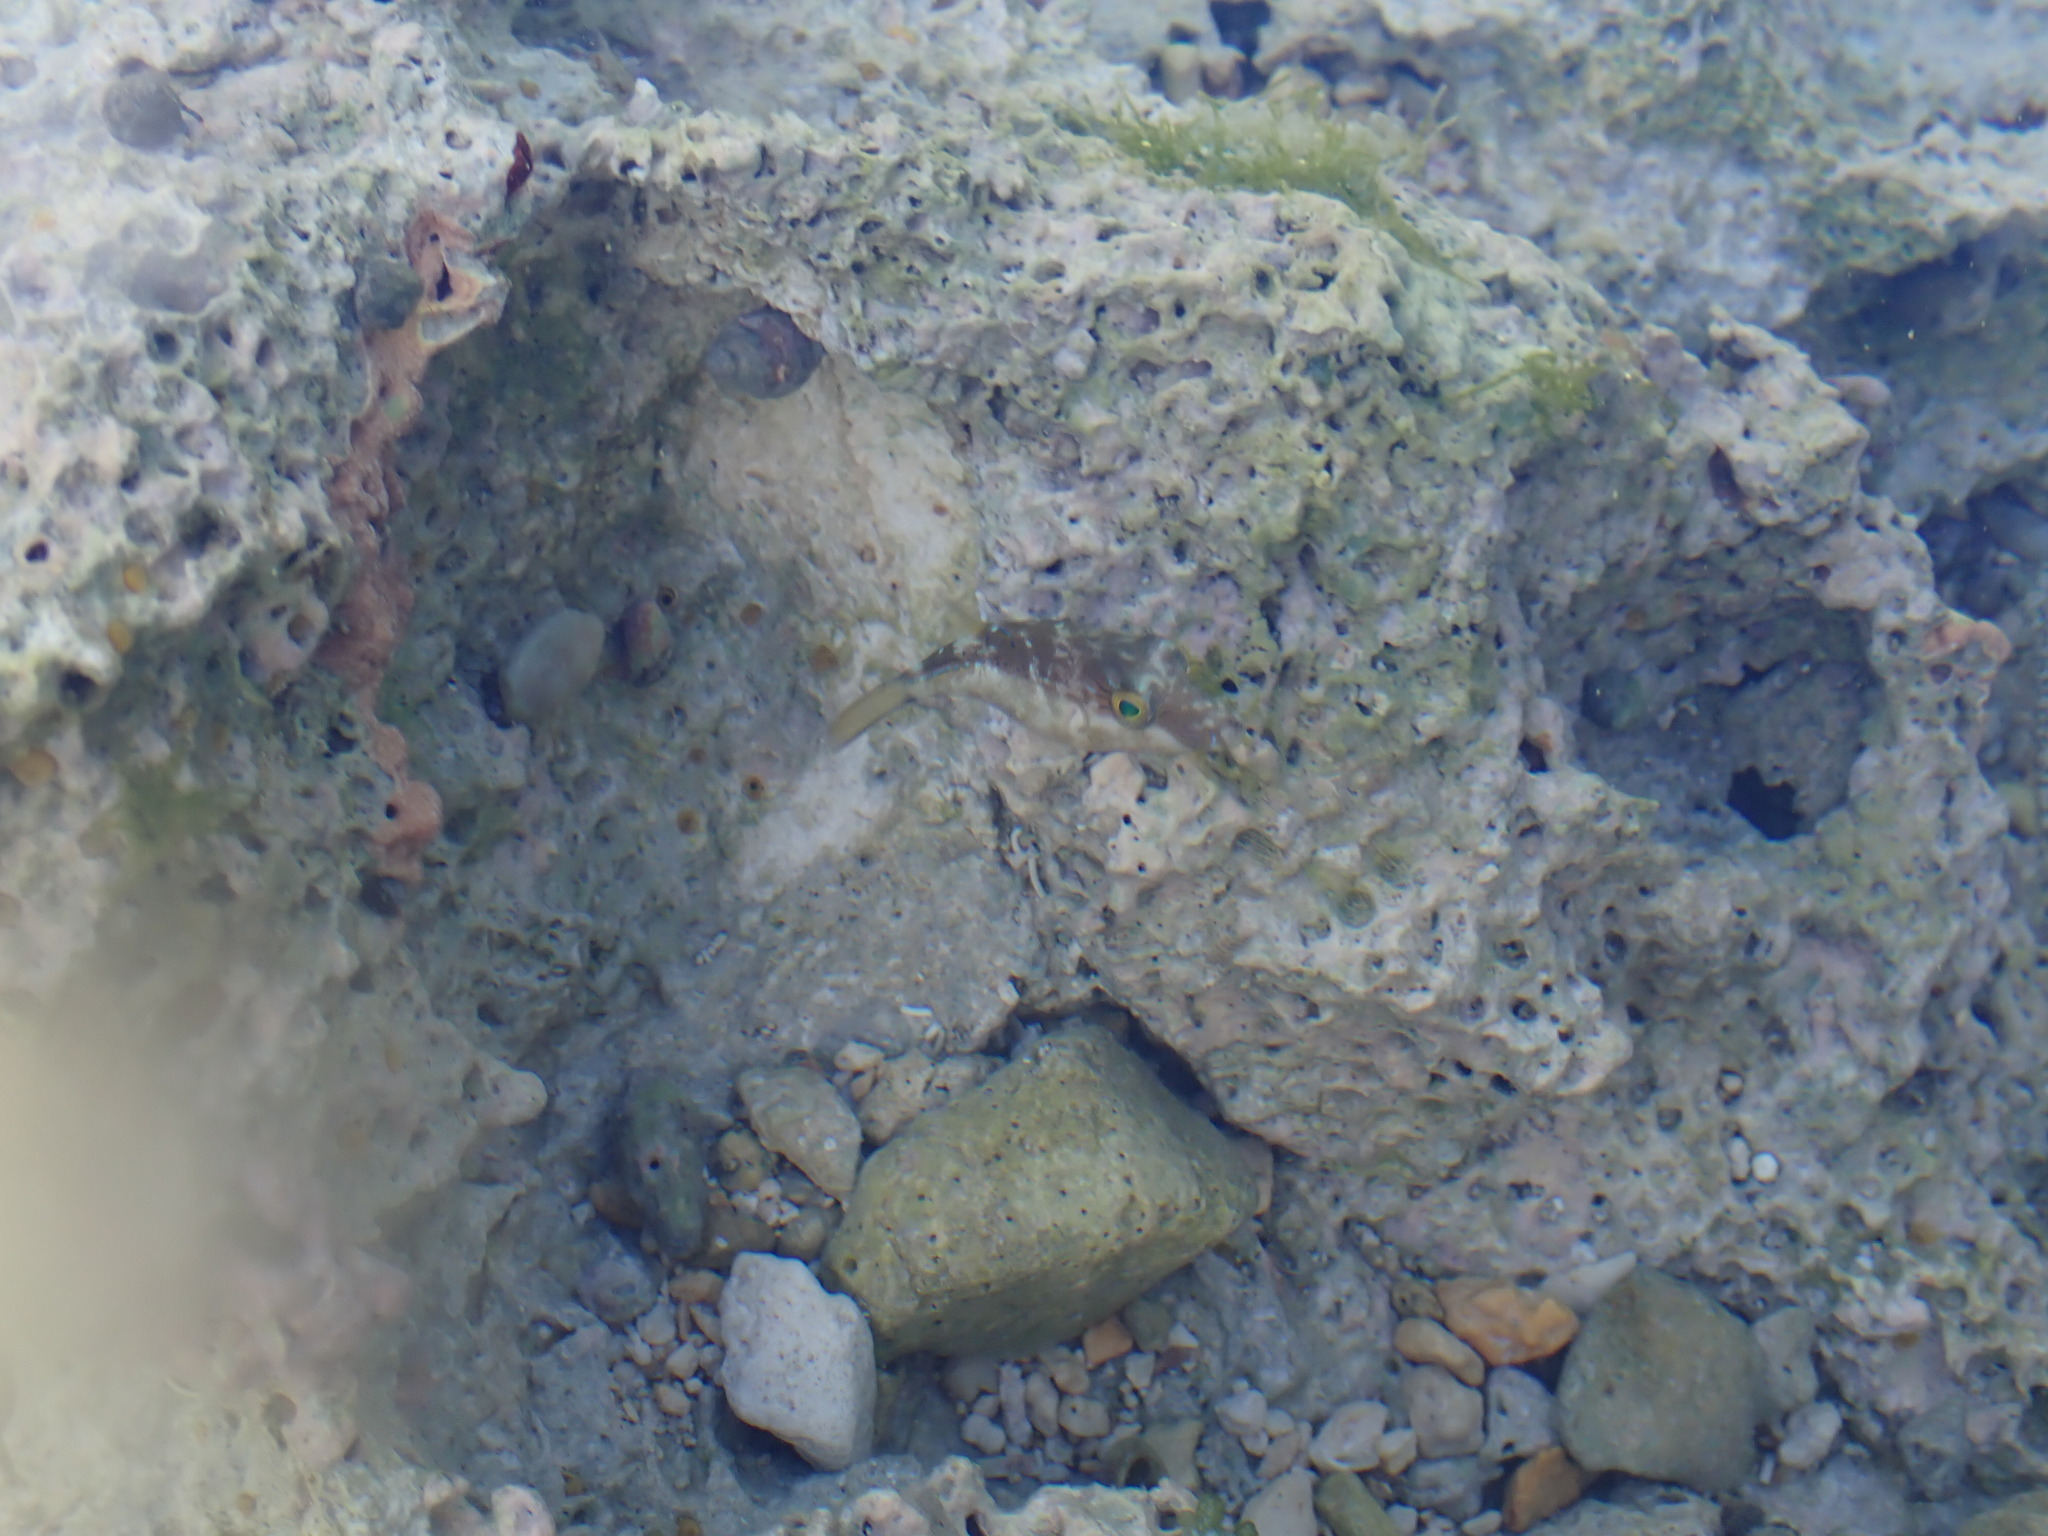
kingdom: Animalia
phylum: Chordata
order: Tetraodontiformes
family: Tetraodontidae
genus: Canthigaster
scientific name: Canthigaster rostrata
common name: Caribbean sharpnose-puffer
